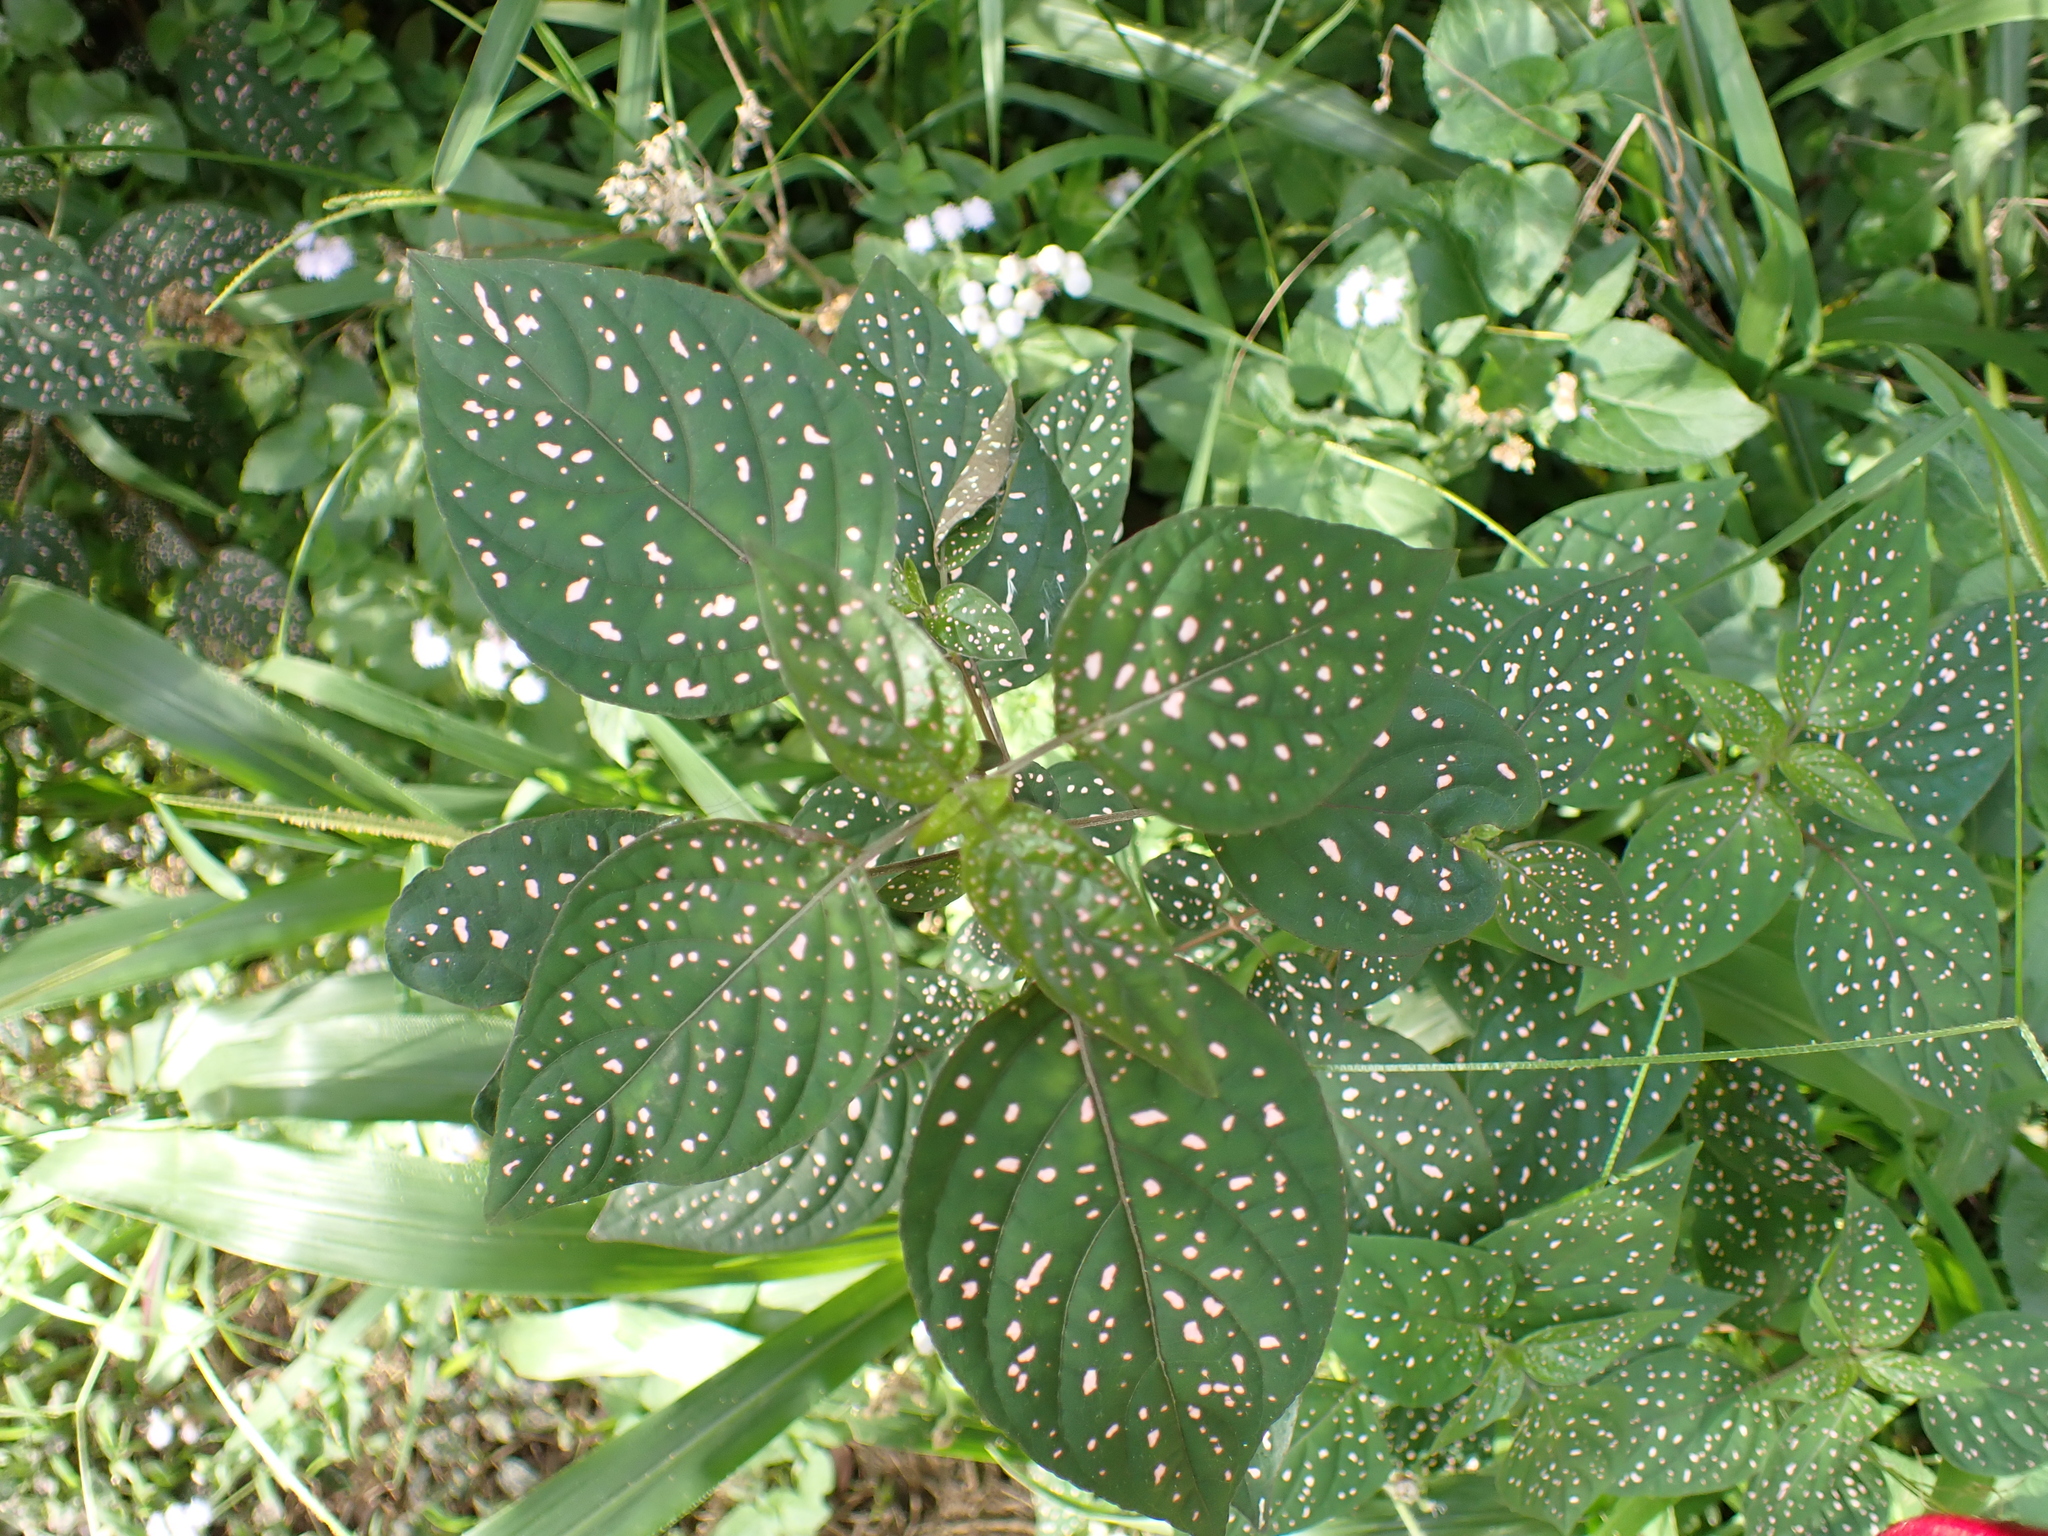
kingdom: Plantae
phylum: Tracheophyta
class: Magnoliopsida
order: Lamiales
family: Acanthaceae
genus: Hypoestes
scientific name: Hypoestes phyllostachya
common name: Polkadot-plant
